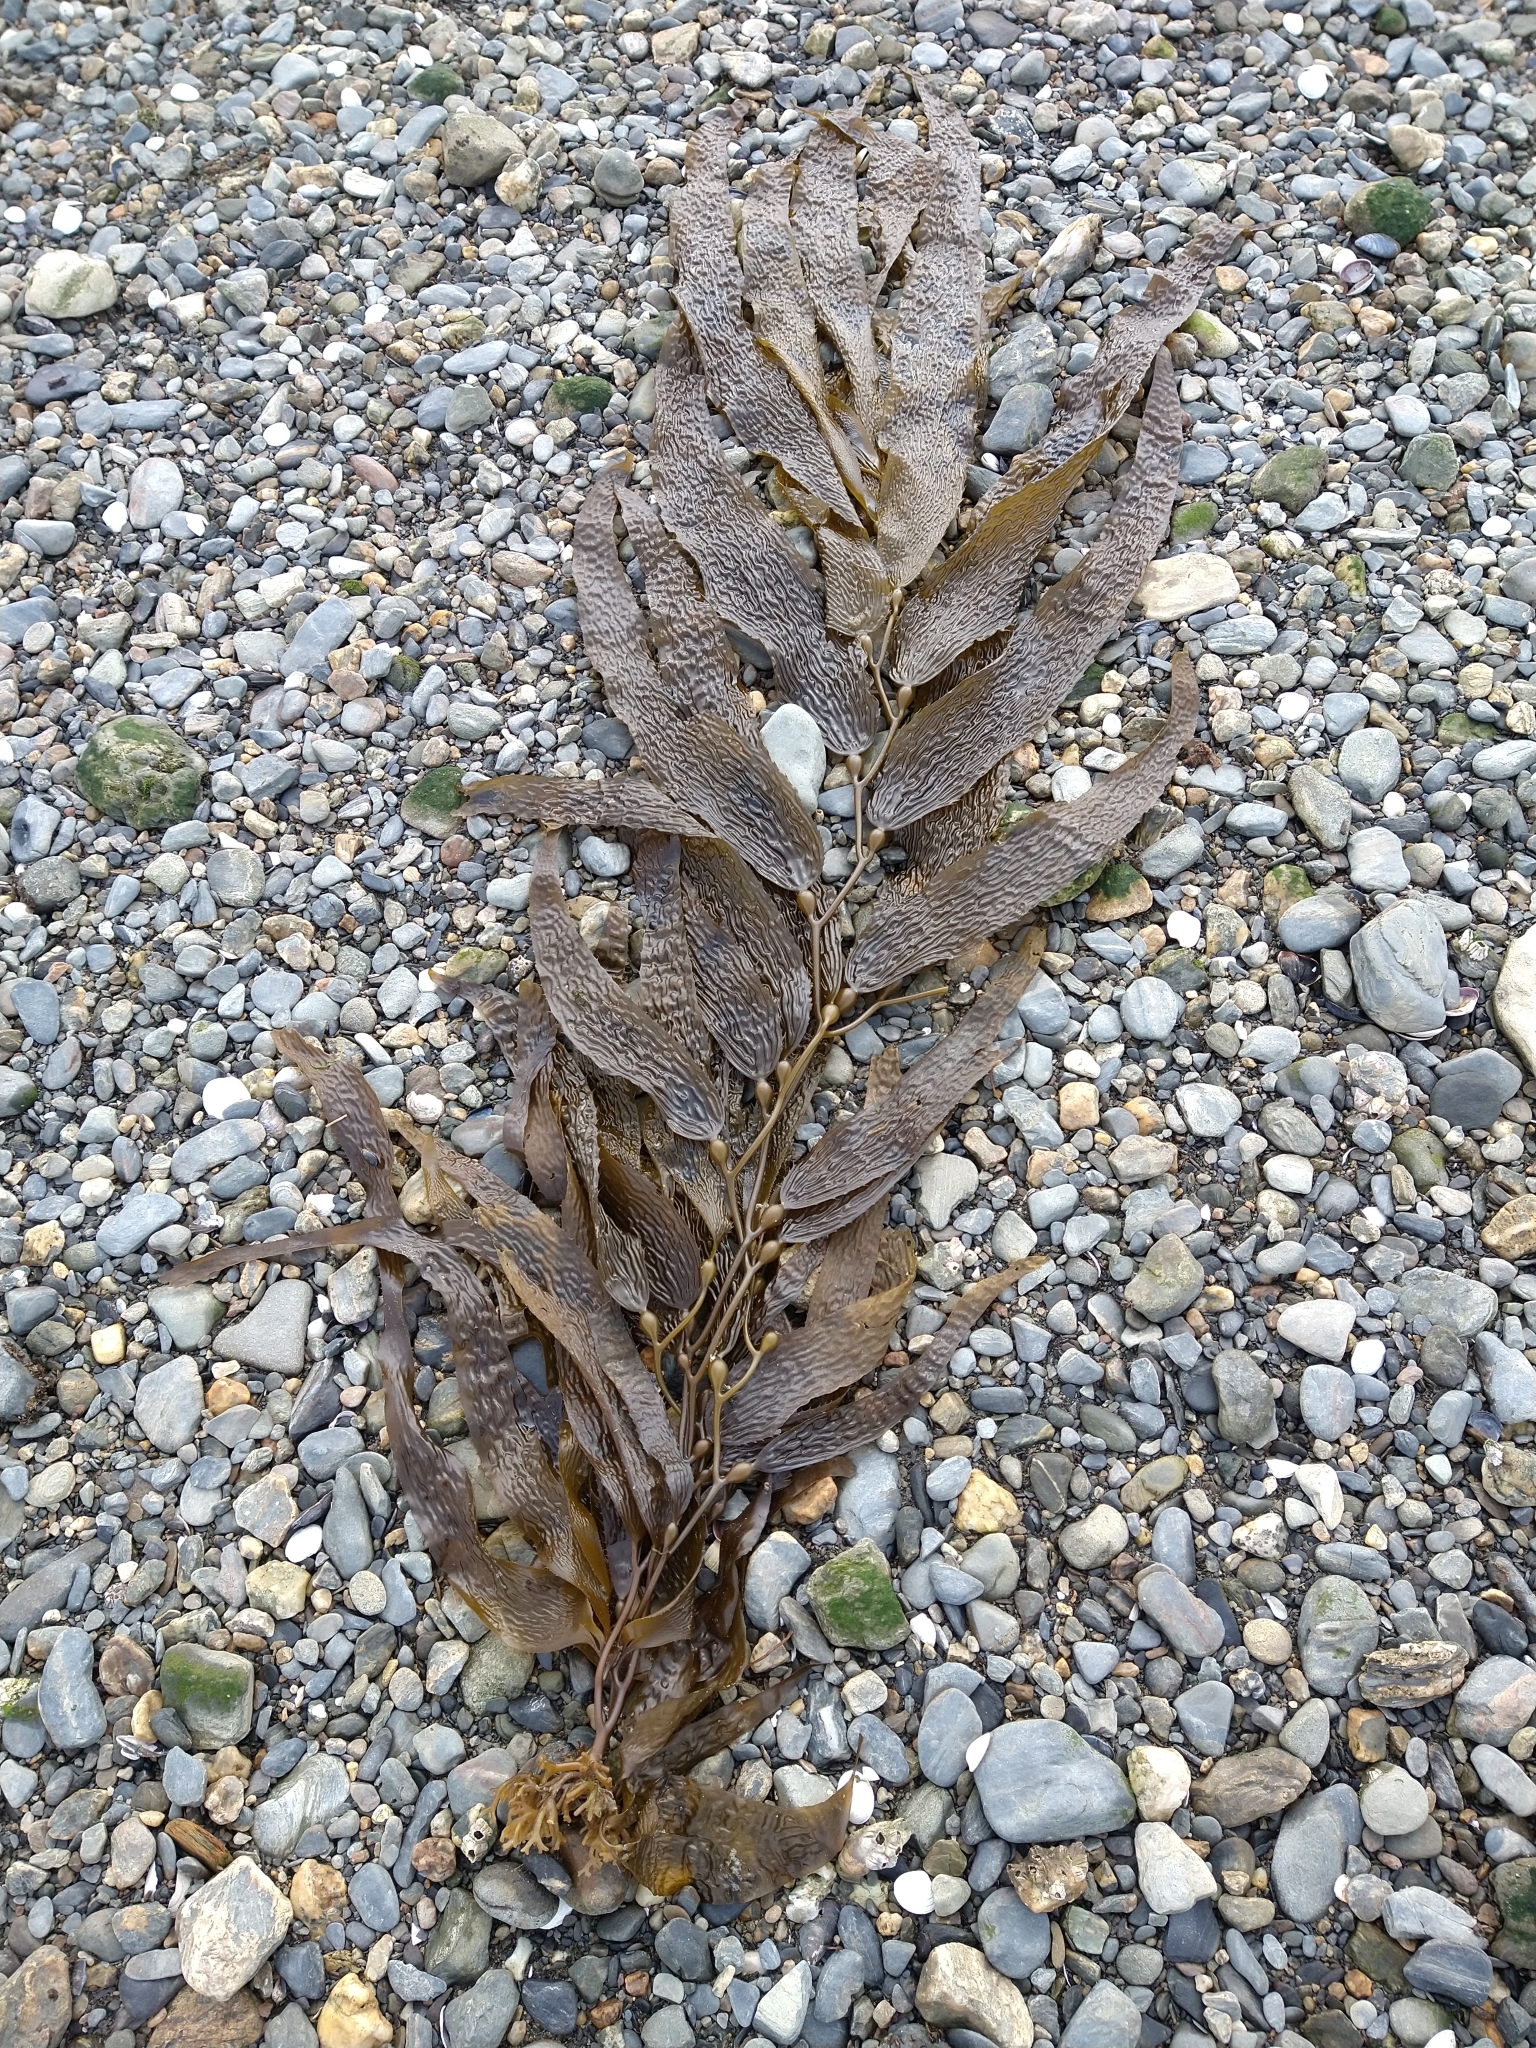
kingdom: Chromista
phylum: Ochrophyta
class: Phaeophyceae
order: Laminariales
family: Laminariaceae
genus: Macrocystis
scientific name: Macrocystis pyrifera
